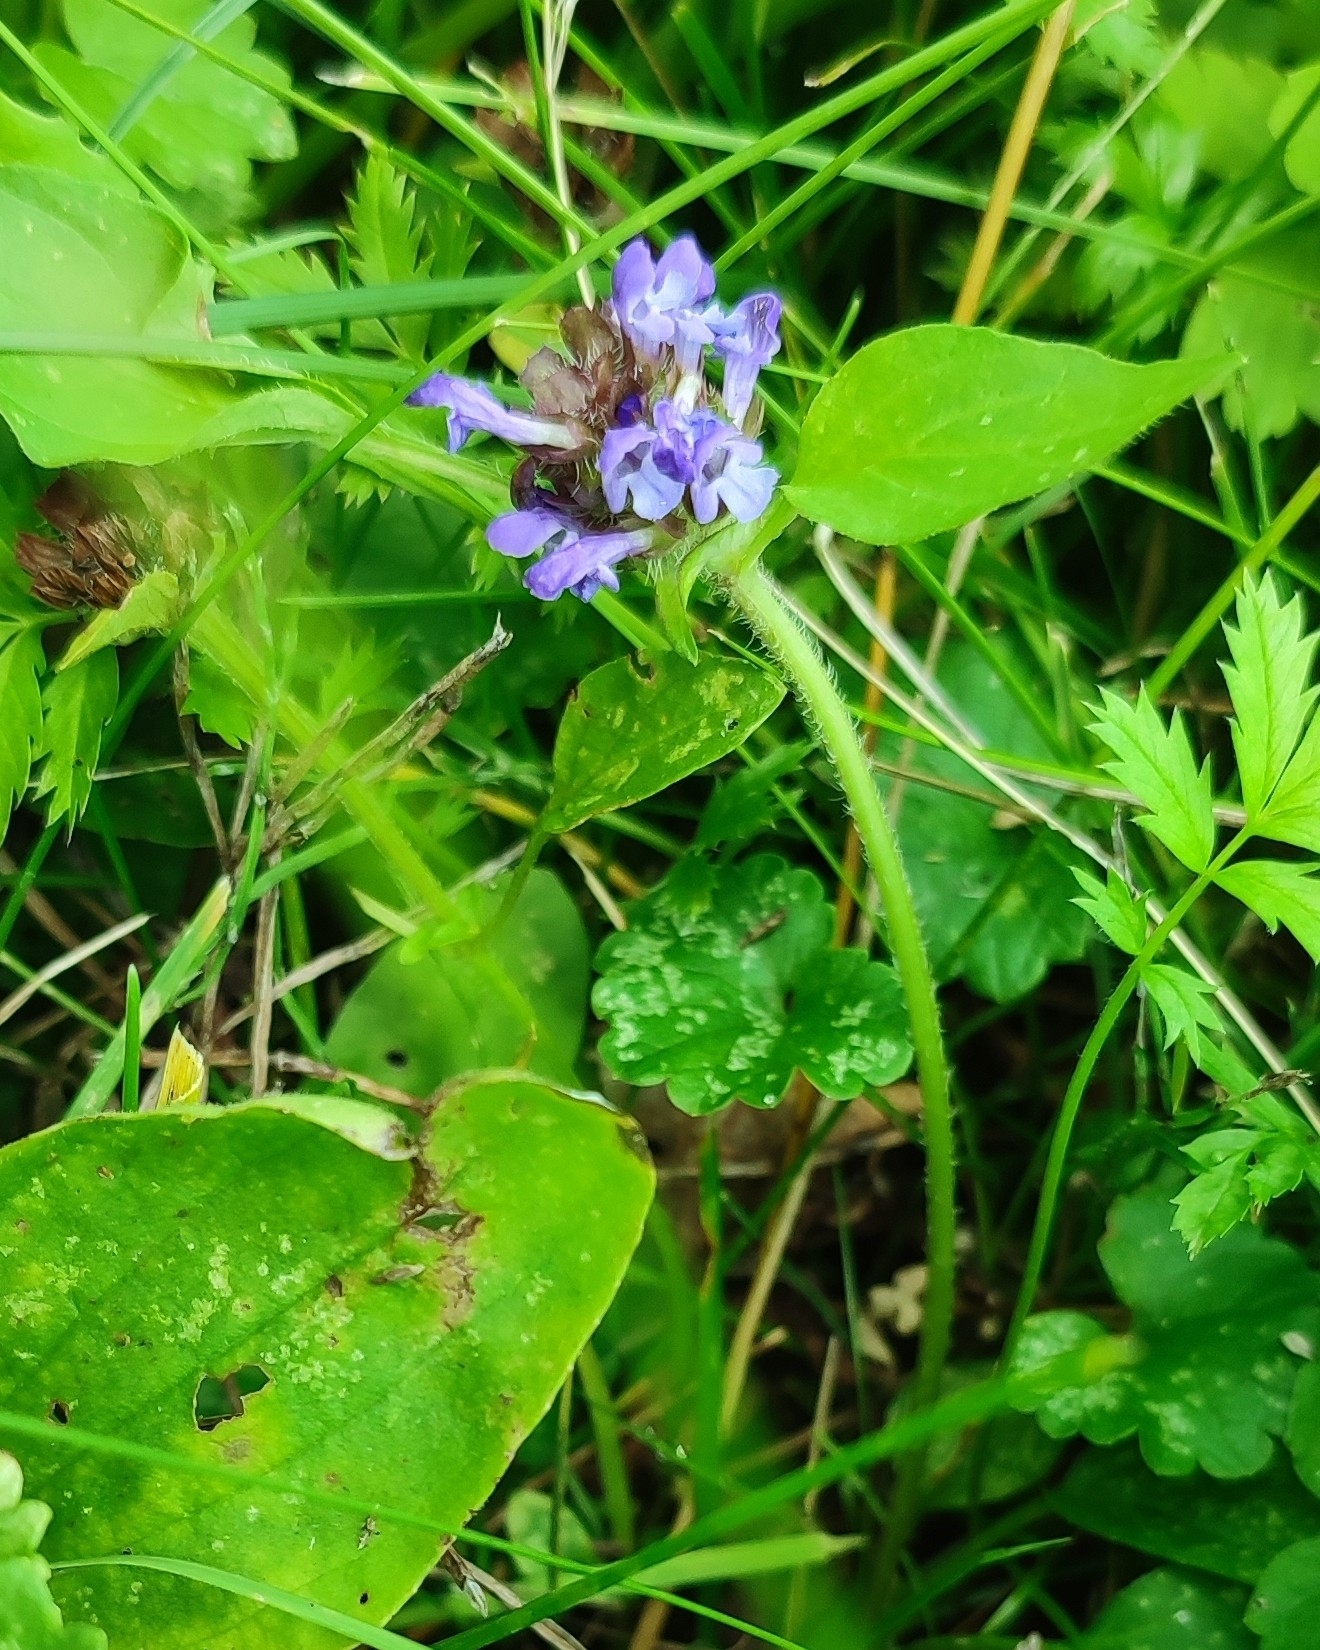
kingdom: Plantae
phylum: Tracheophyta
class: Magnoliopsida
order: Lamiales
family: Lamiaceae
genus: Prunella
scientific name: Prunella vulgaris
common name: Heal-all
